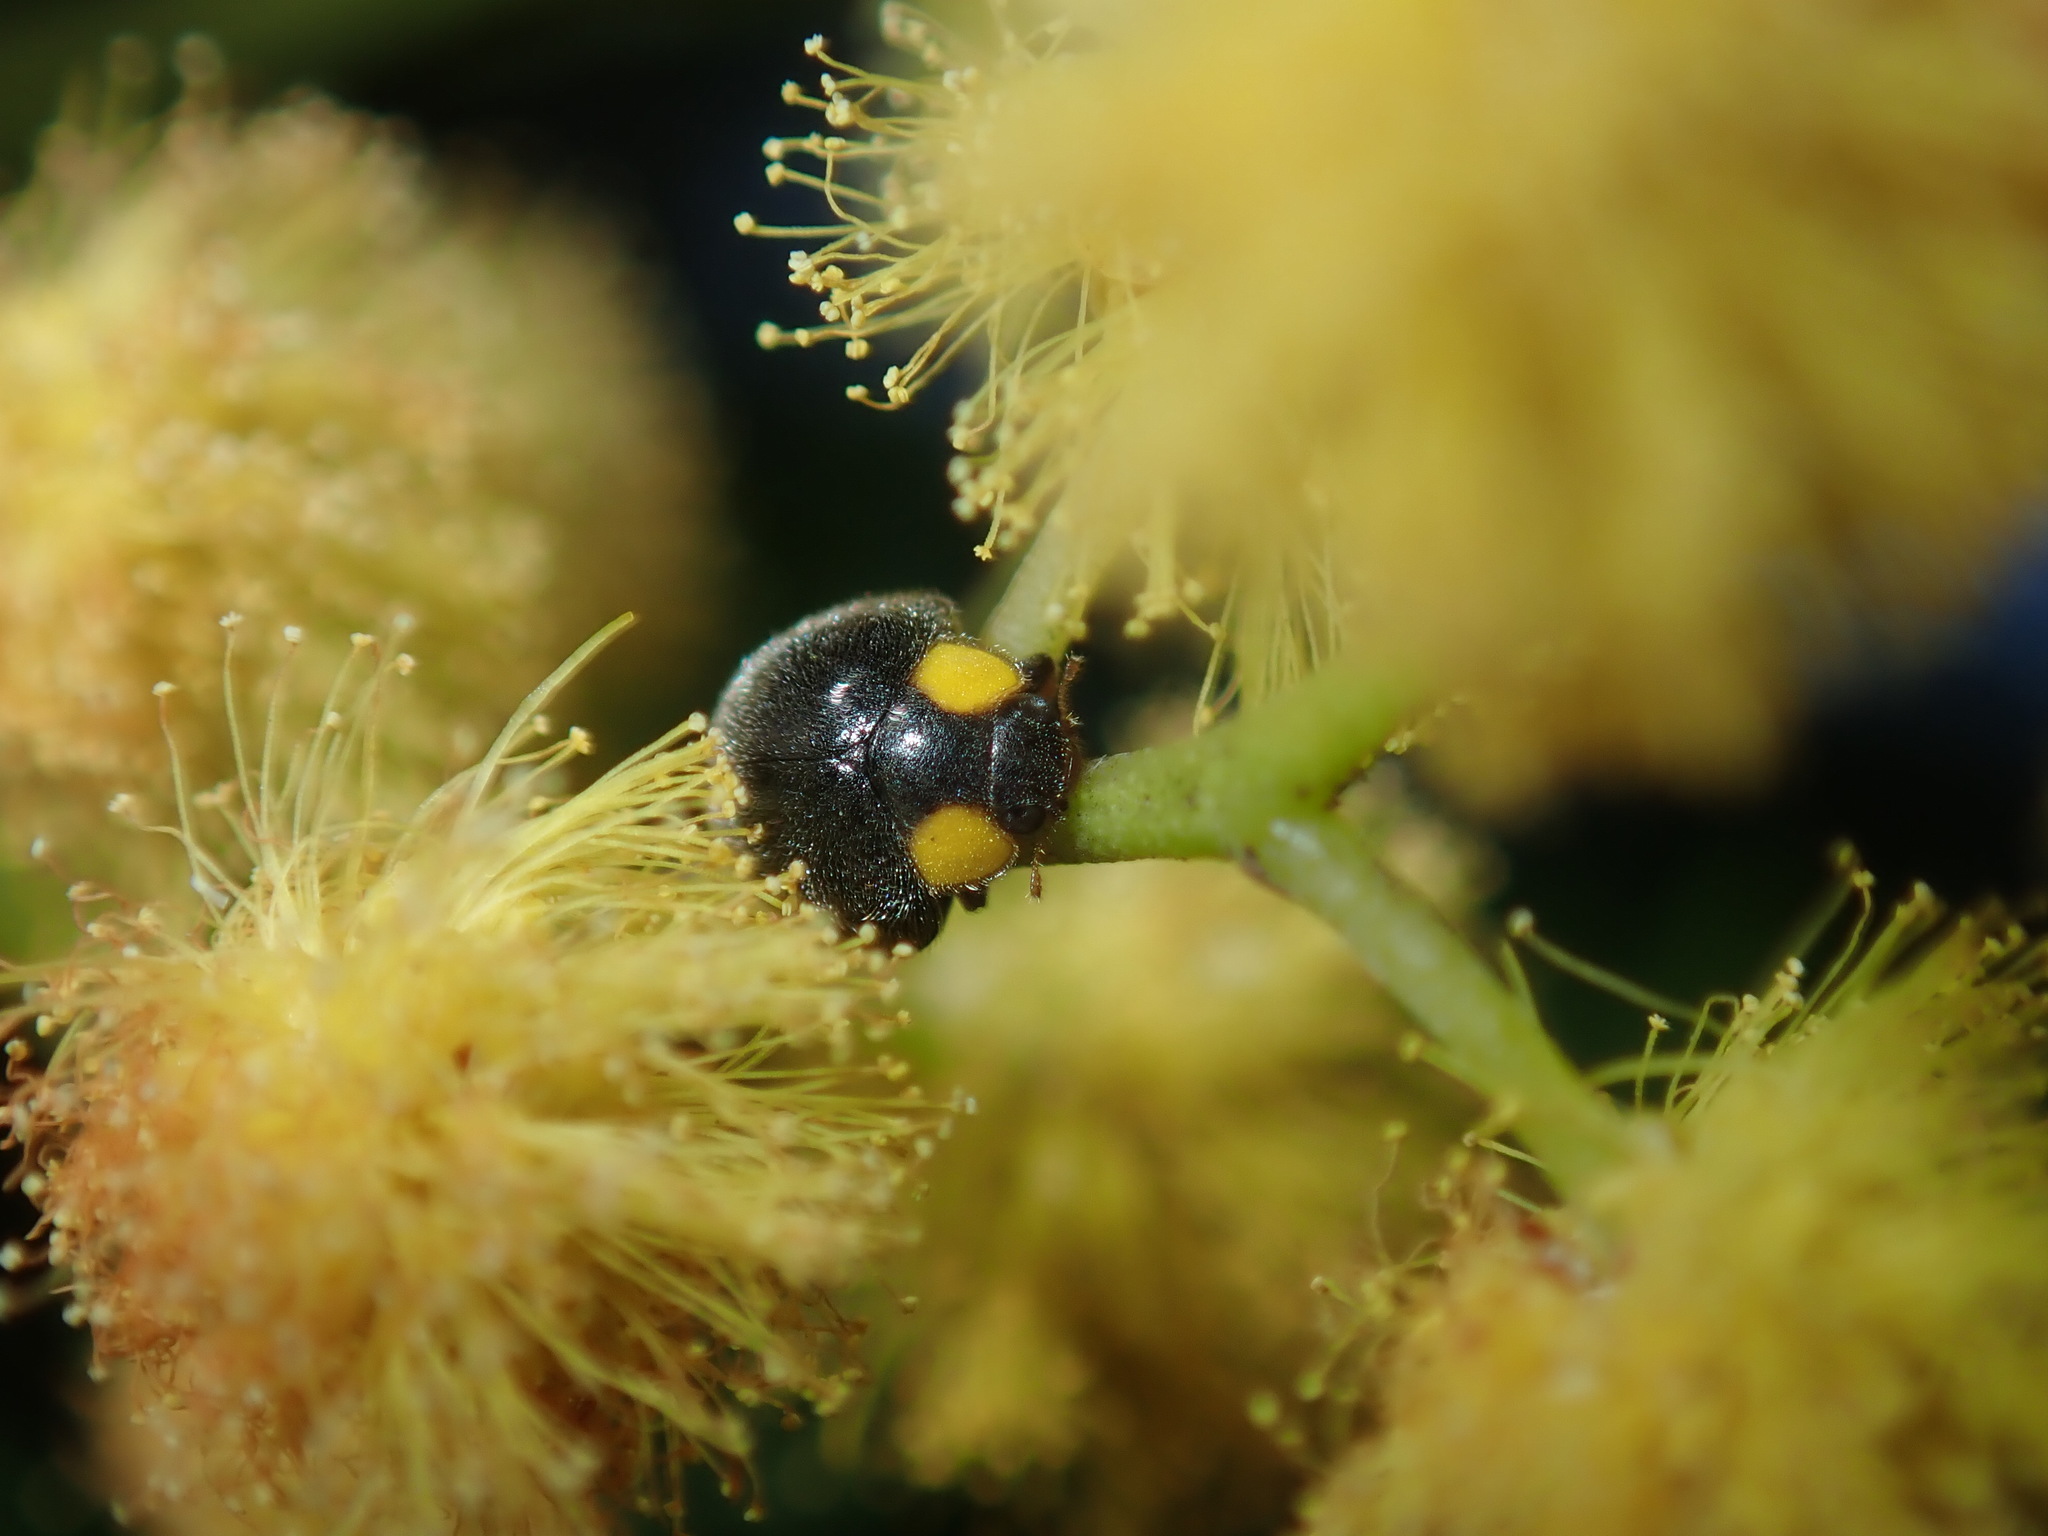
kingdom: Animalia
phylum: Arthropoda
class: Insecta
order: Coleoptera
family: Coccinellidae
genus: Scymnodes
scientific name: Scymnodes lividigaster
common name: Yellowshouldered lady beetle
